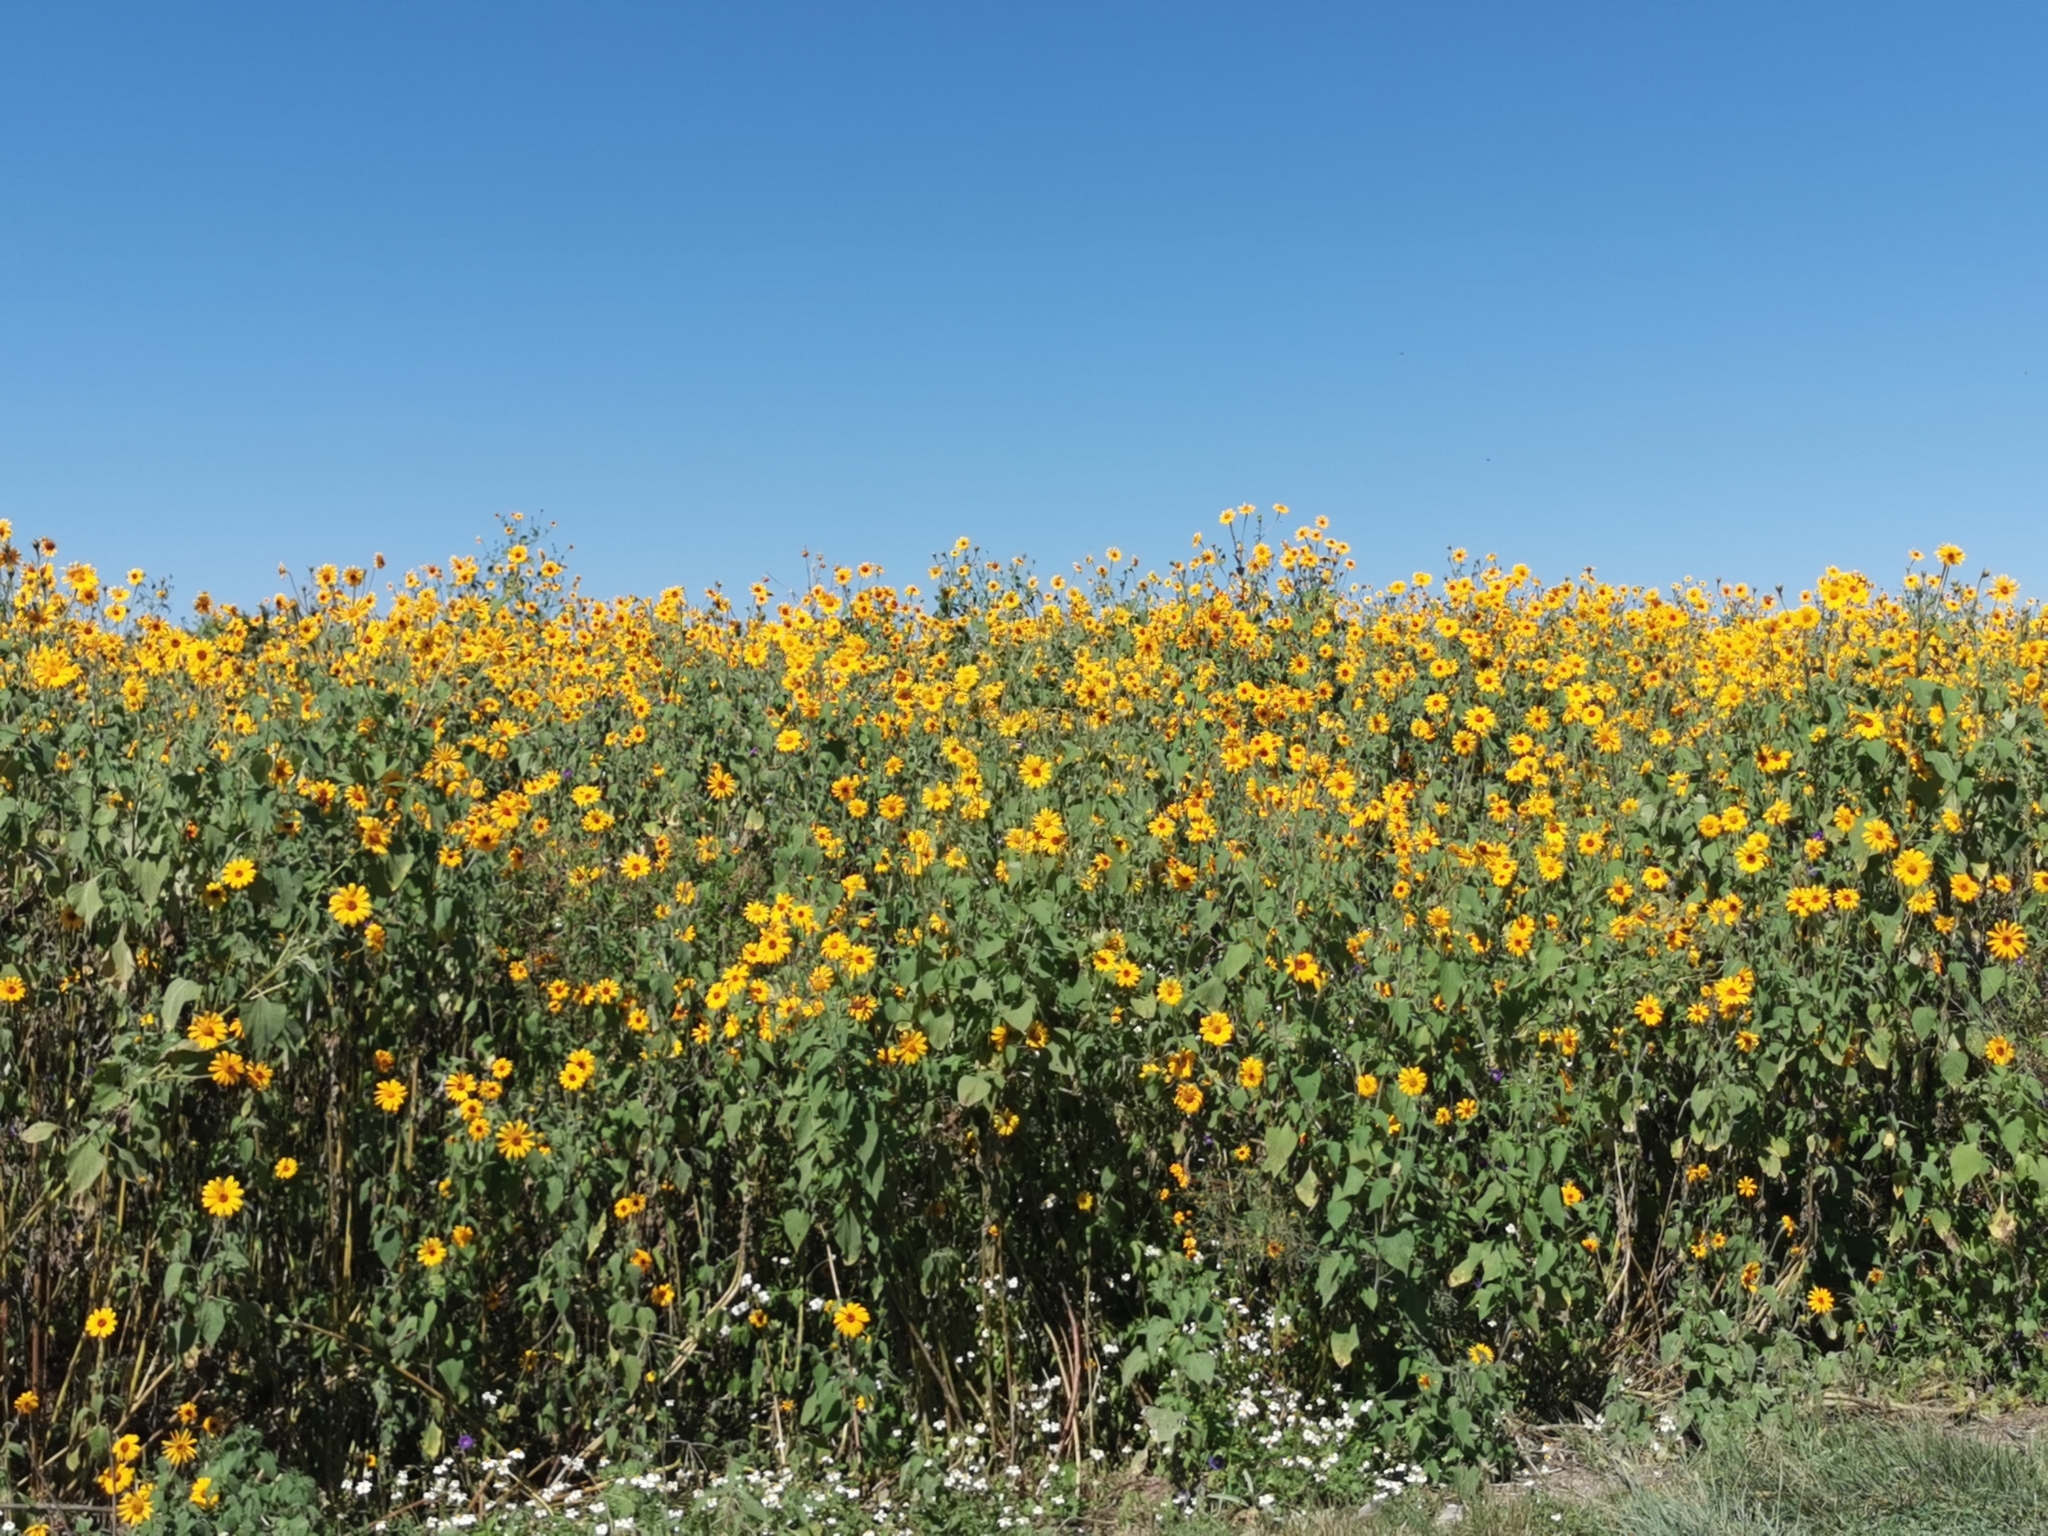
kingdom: Plantae
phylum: Tracheophyta
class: Magnoliopsida
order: Asterales
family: Asteraceae
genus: Tithonia
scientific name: Tithonia tubaeformis
